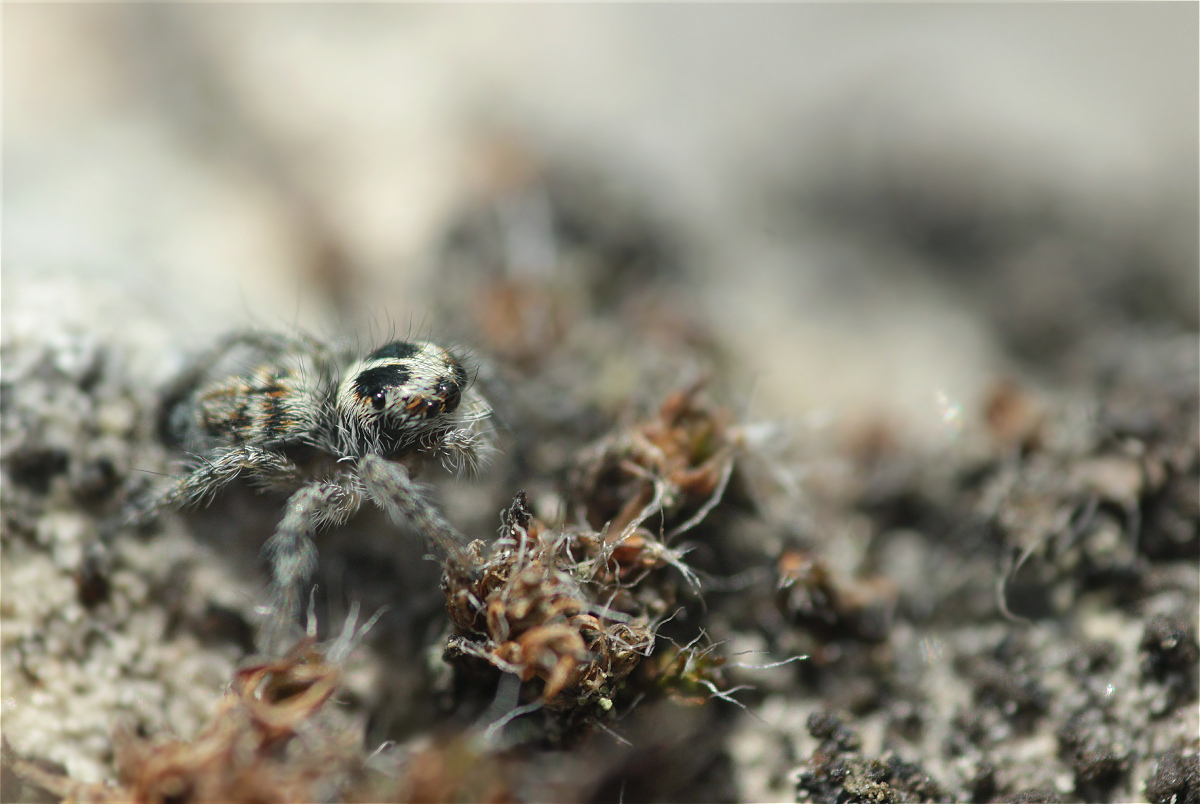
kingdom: Animalia
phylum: Arthropoda
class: Arachnida
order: Araneae
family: Salticidae
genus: Philaeus
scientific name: Philaeus chrysops
